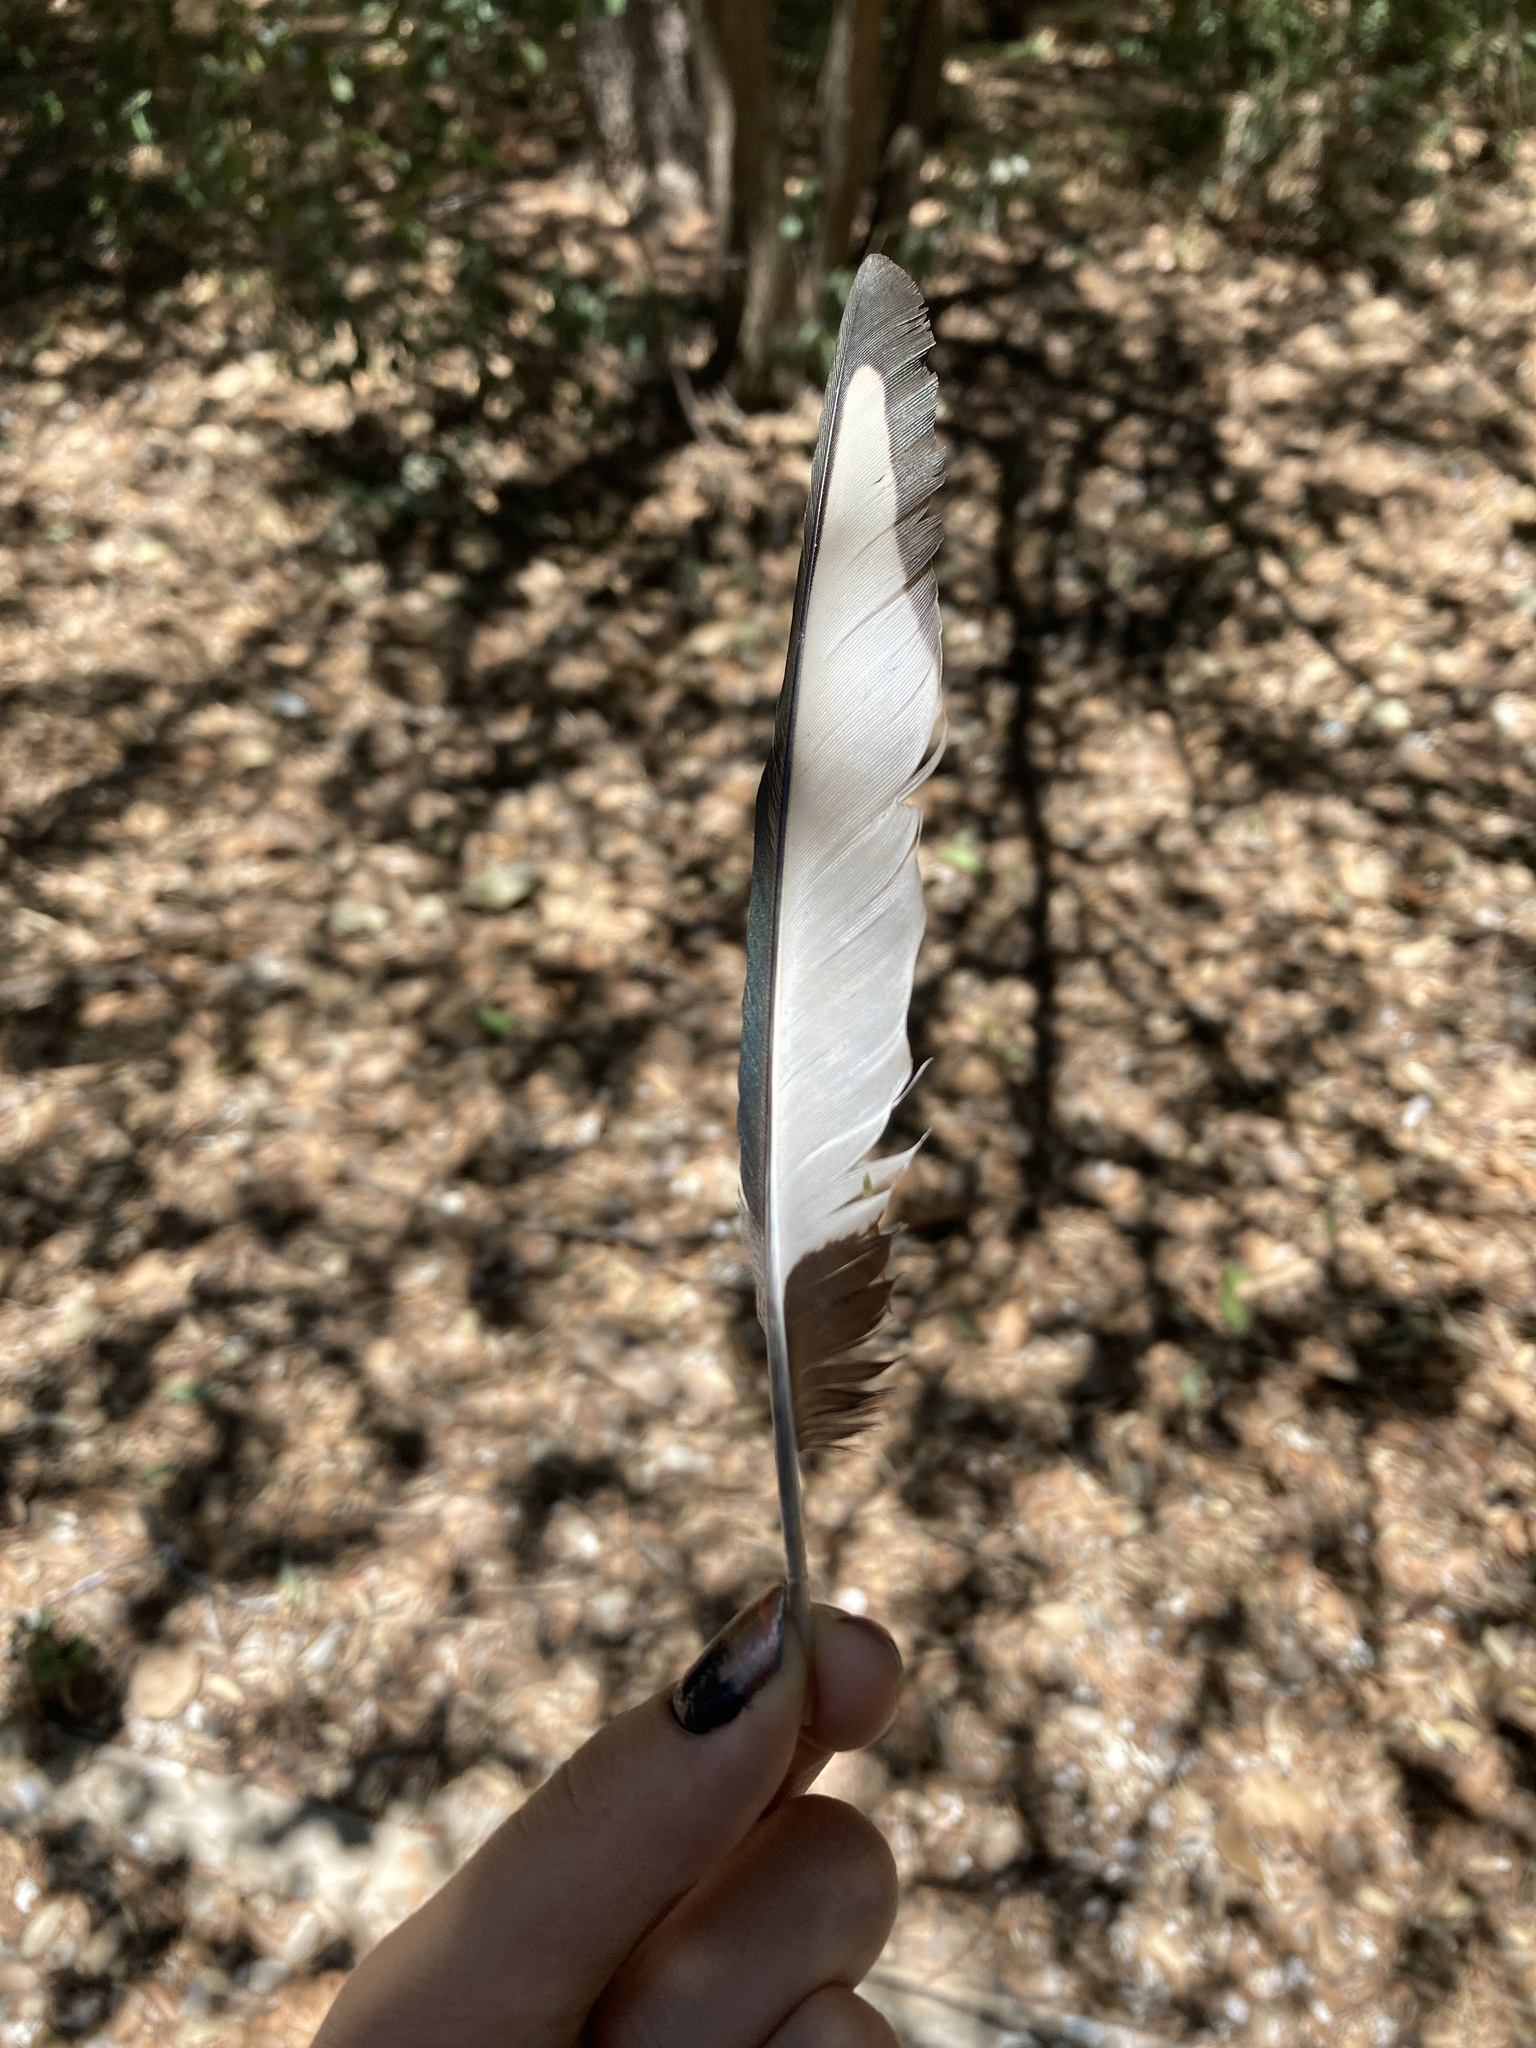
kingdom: Animalia
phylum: Chordata
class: Aves
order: Passeriformes
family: Corvidae
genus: Pica
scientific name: Pica pica
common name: Eurasian magpie
